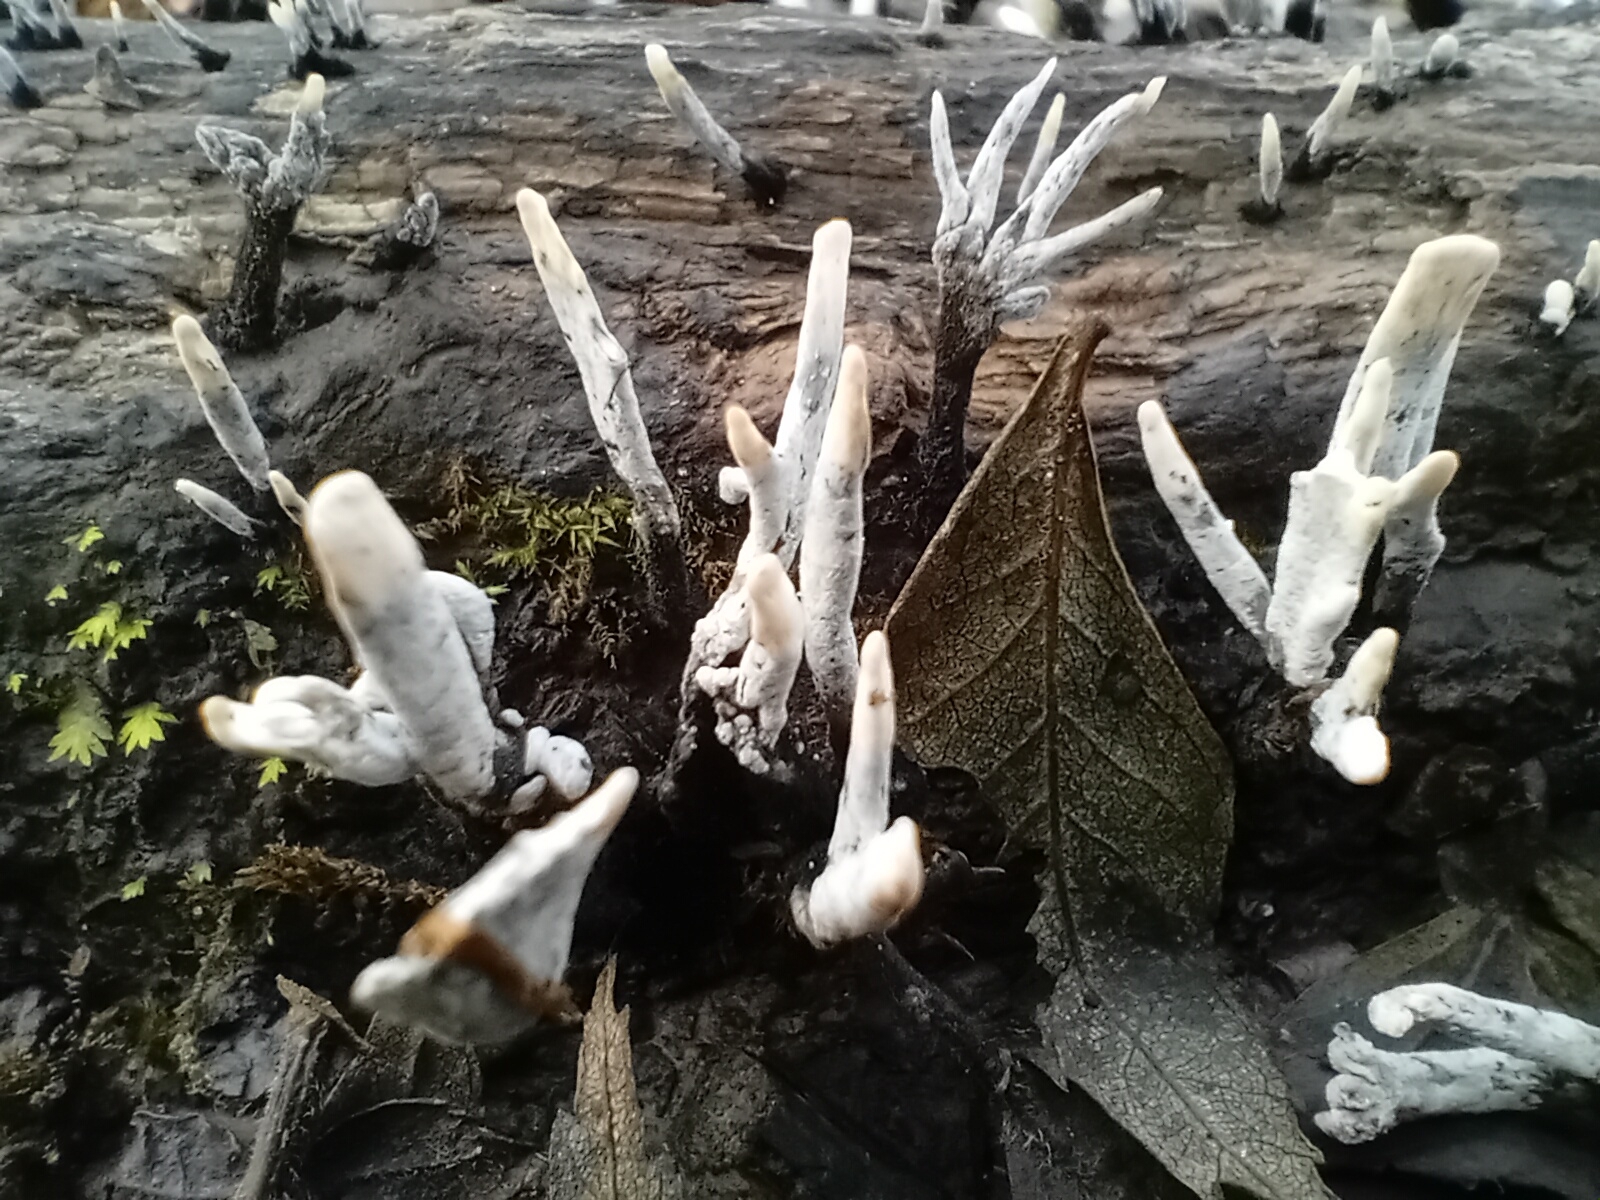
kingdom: Fungi
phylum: Ascomycota
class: Sordariomycetes
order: Xylariales
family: Xylariaceae
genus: Xylaria
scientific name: Xylaria hypoxylon
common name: Candle-snuff fungus
